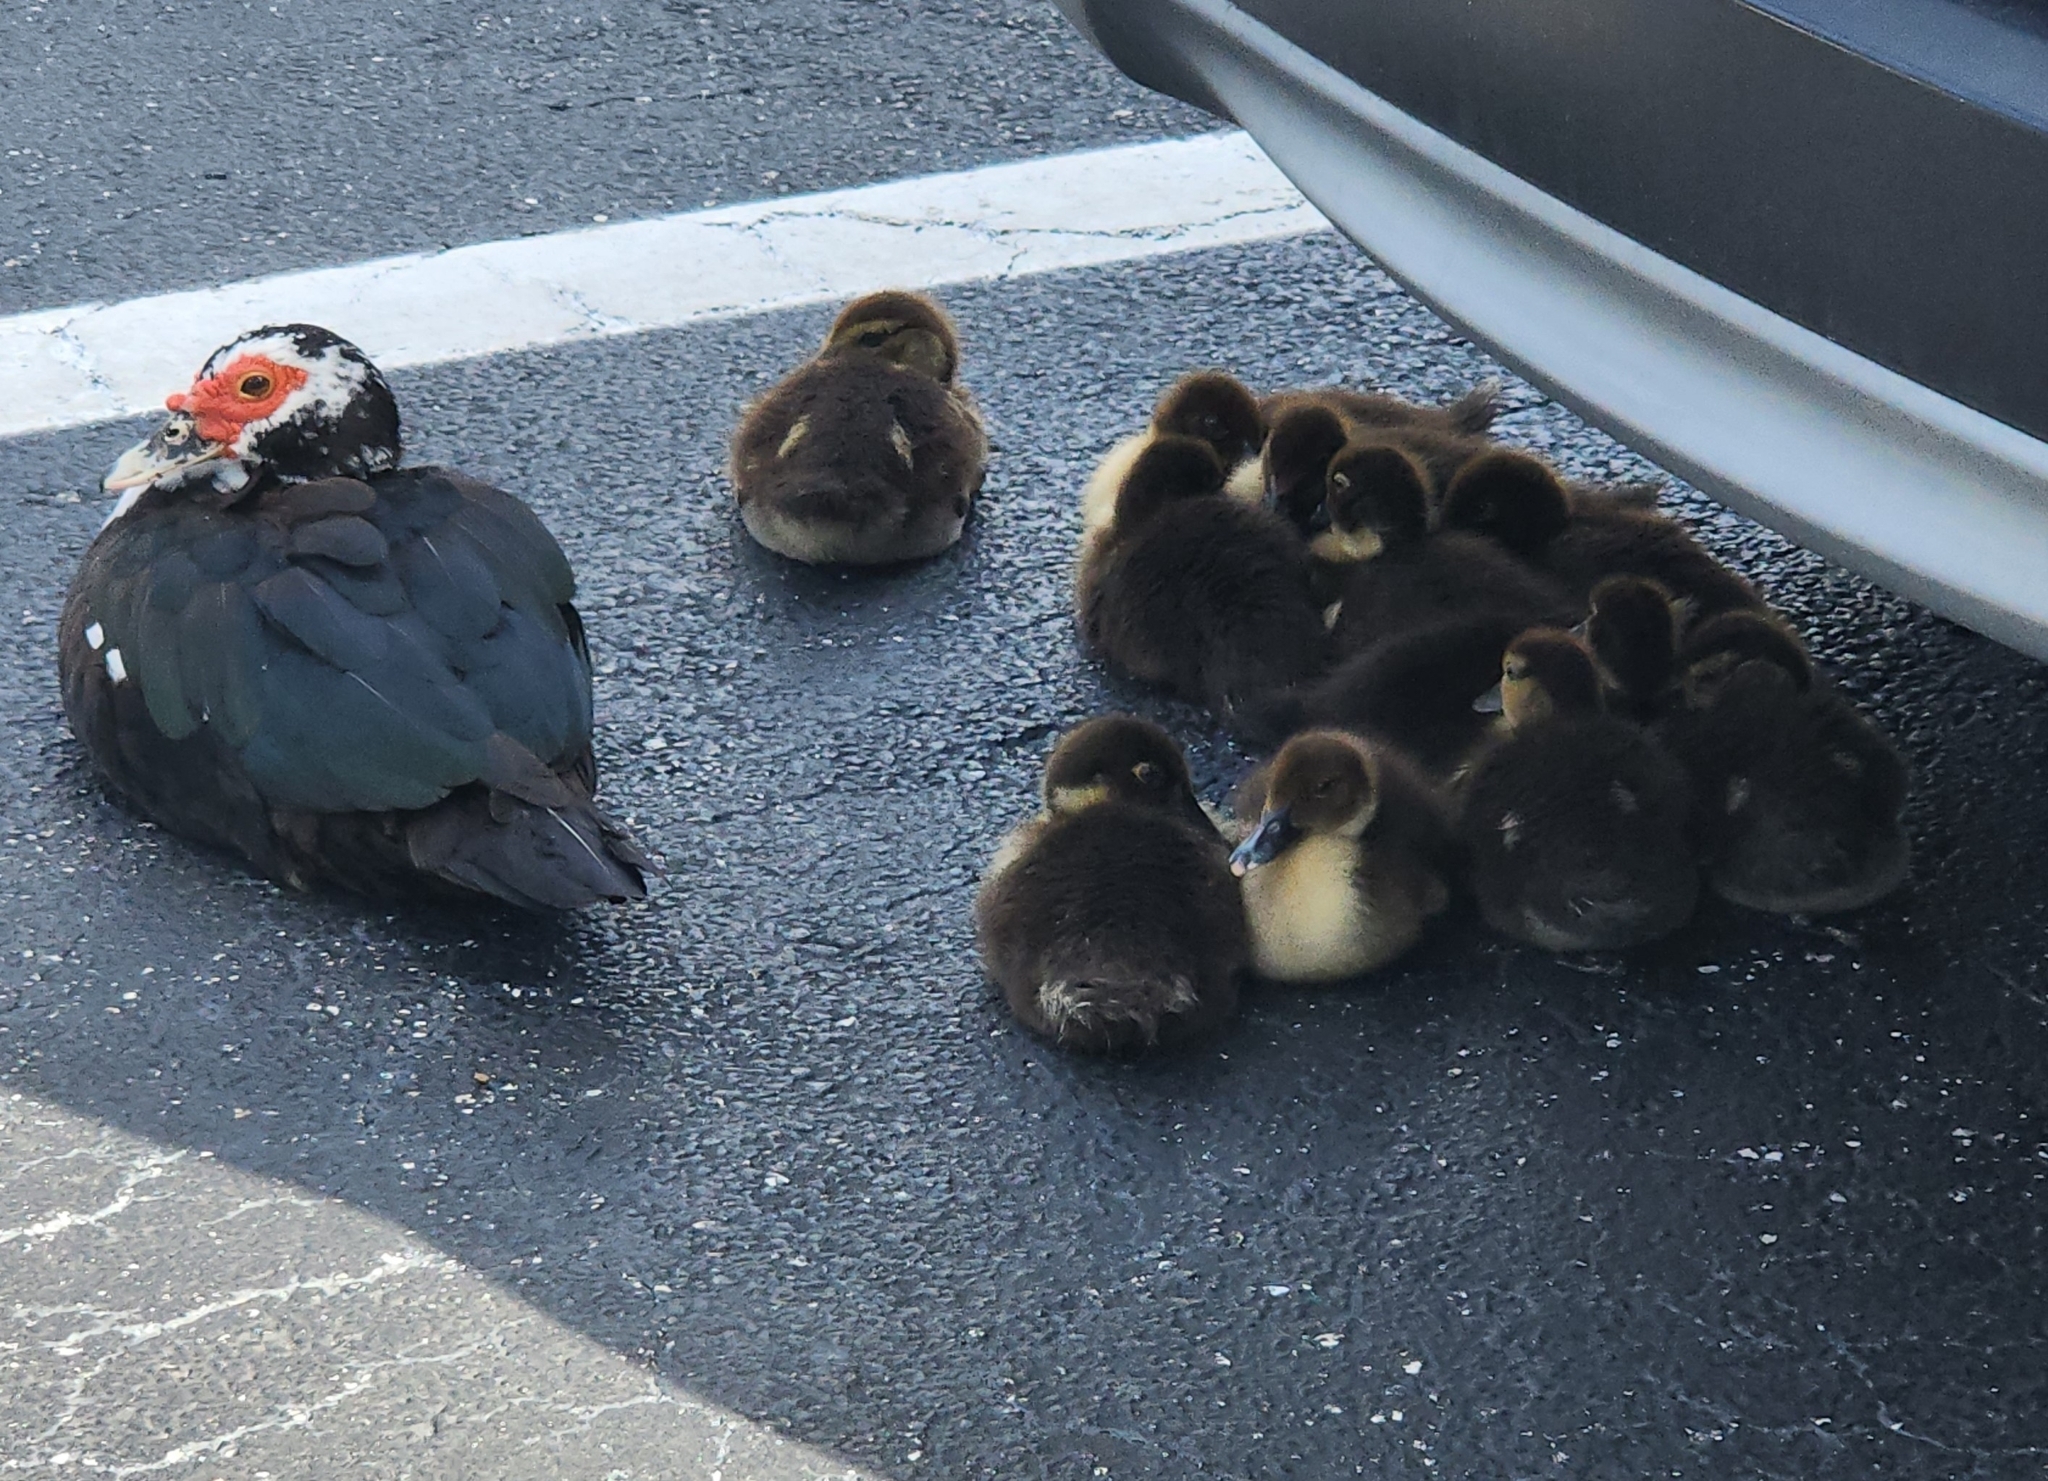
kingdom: Animalia
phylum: Chordata
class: Aves
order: Anseriformes
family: Anatidae
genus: Cairina
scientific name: Cairina moschata
